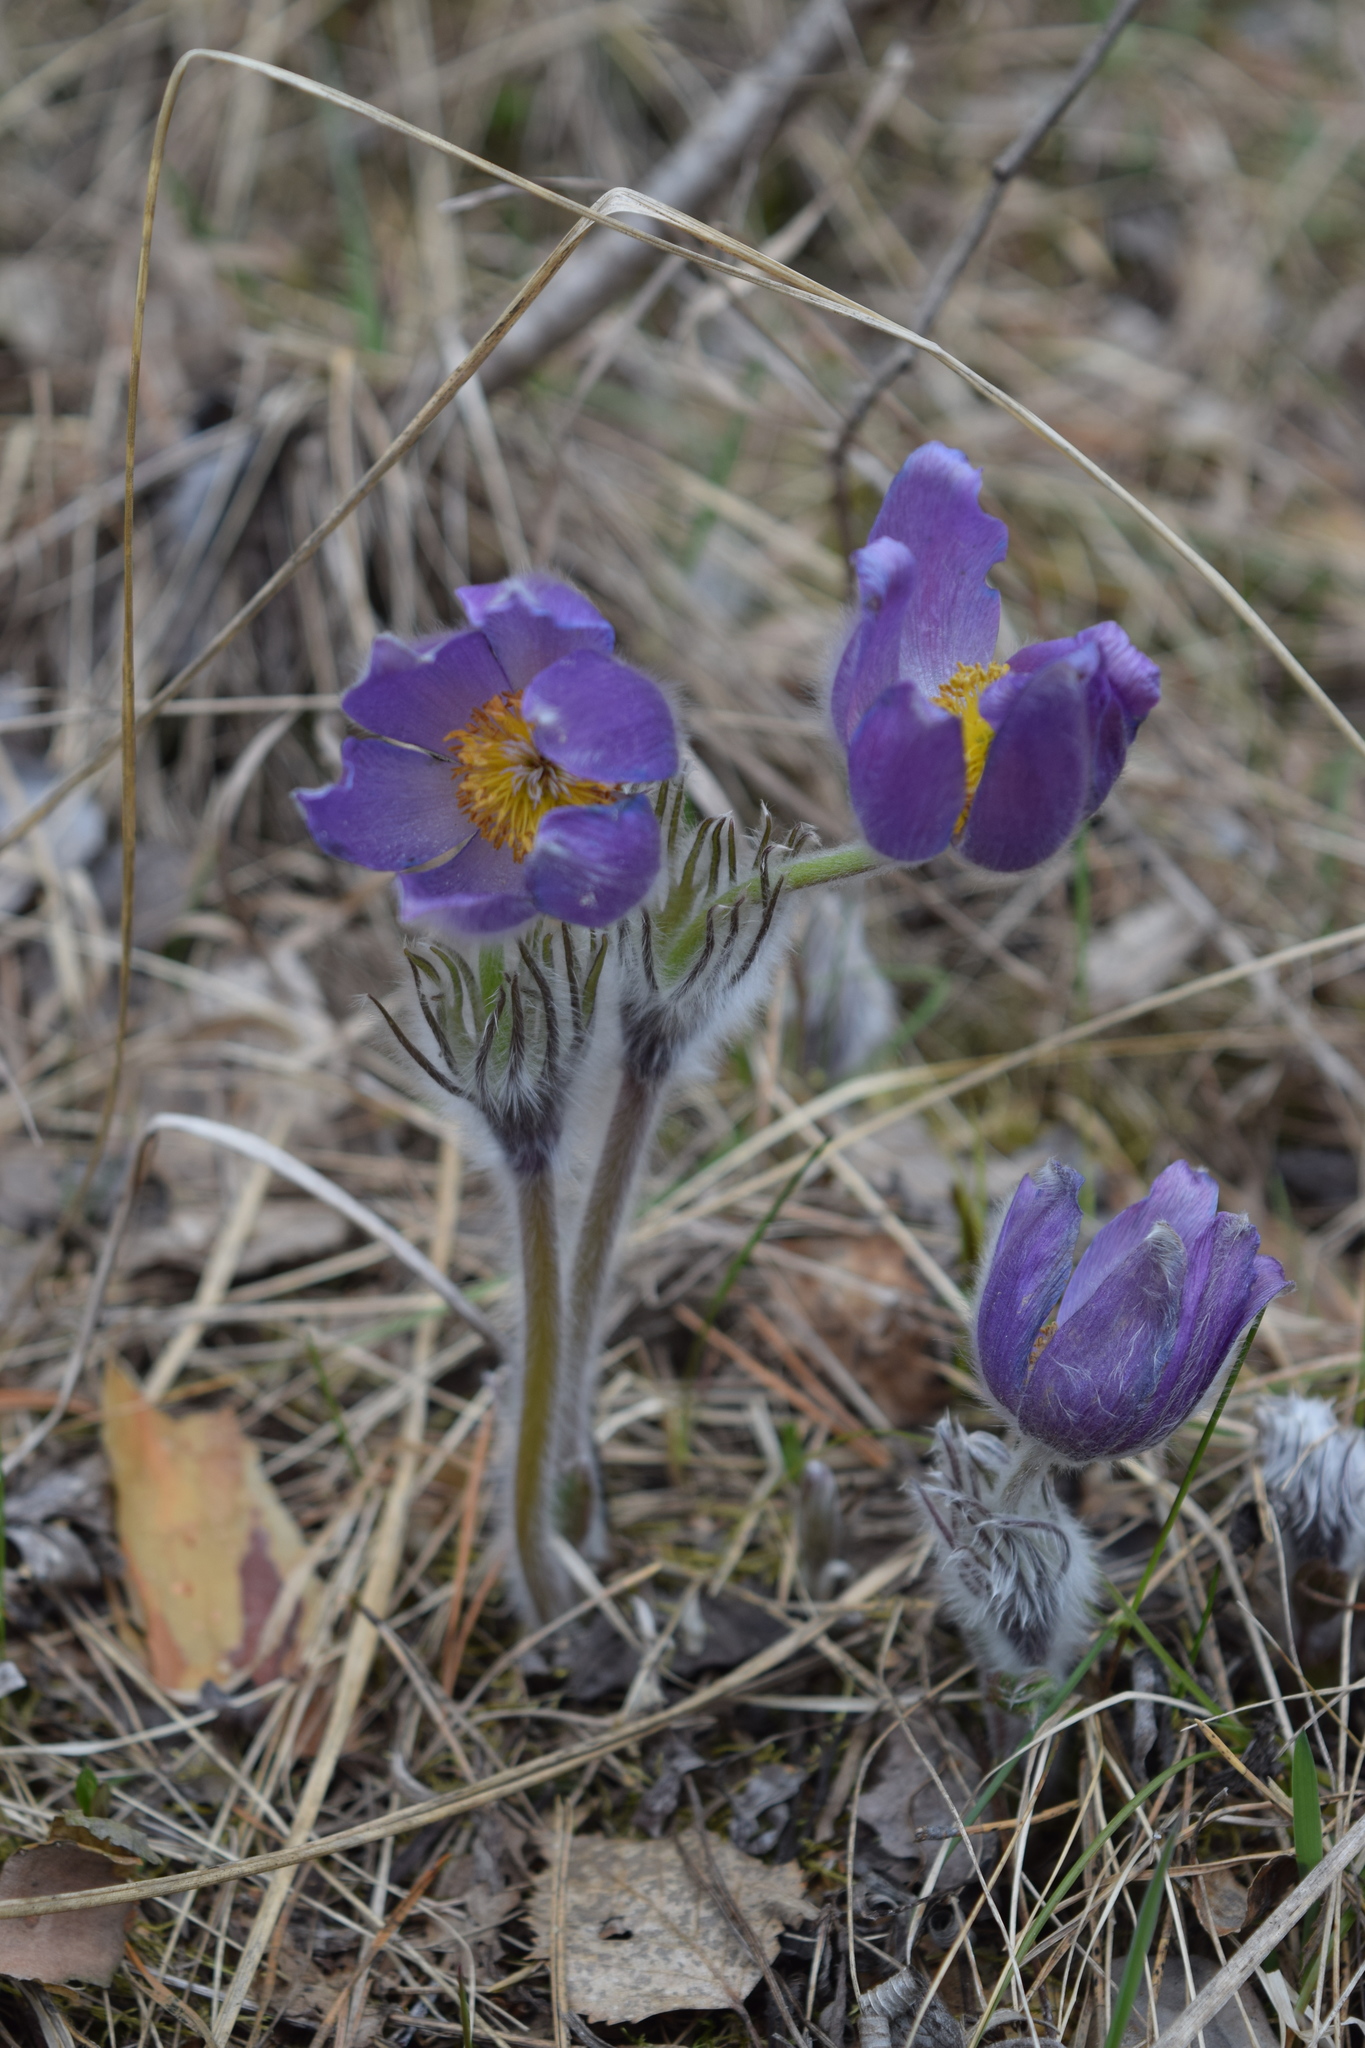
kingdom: Plantae
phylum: Tracheophyta
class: Magnoliopsida
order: Ranunculales
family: Ranunculaceae
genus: Pulsatilla
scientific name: Pulsatilla patens
